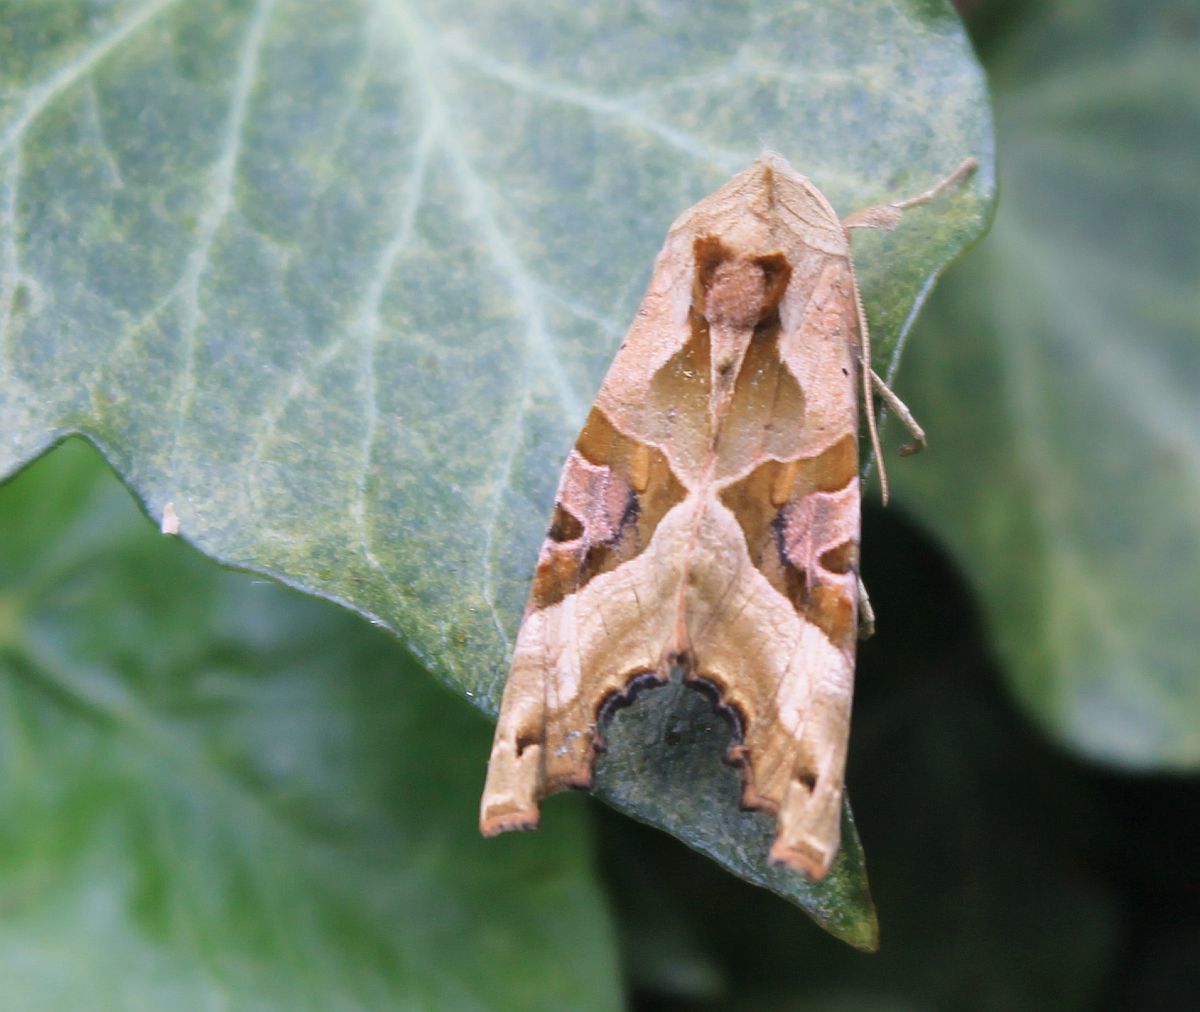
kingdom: Animalia
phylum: Arthropoda
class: Insecta
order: Lepidoptera
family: Noctuidae
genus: Phlogophora
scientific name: Phlogophora meticulosa
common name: Angle shades
